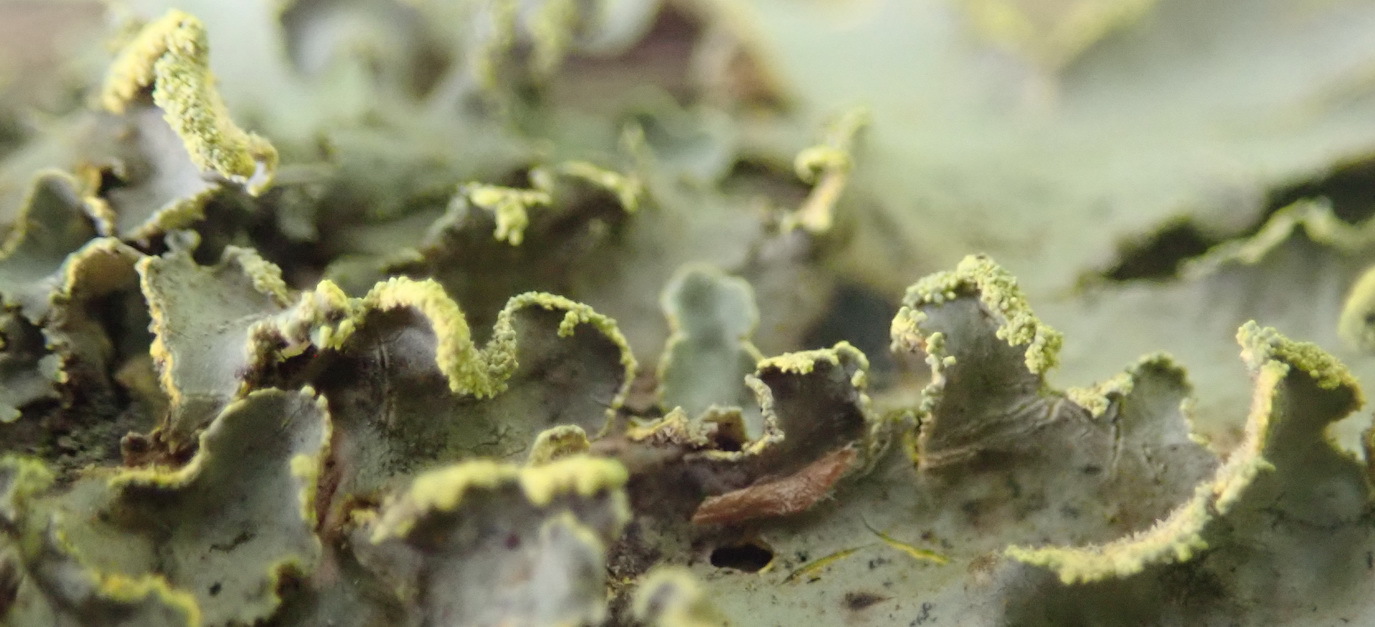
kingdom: Fungi
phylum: Ascomycota
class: Lecanoromycetes
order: Peltigerales
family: Lobariaceae
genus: Pseudocyphellaria
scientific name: Pseudocyphellaria aurata
